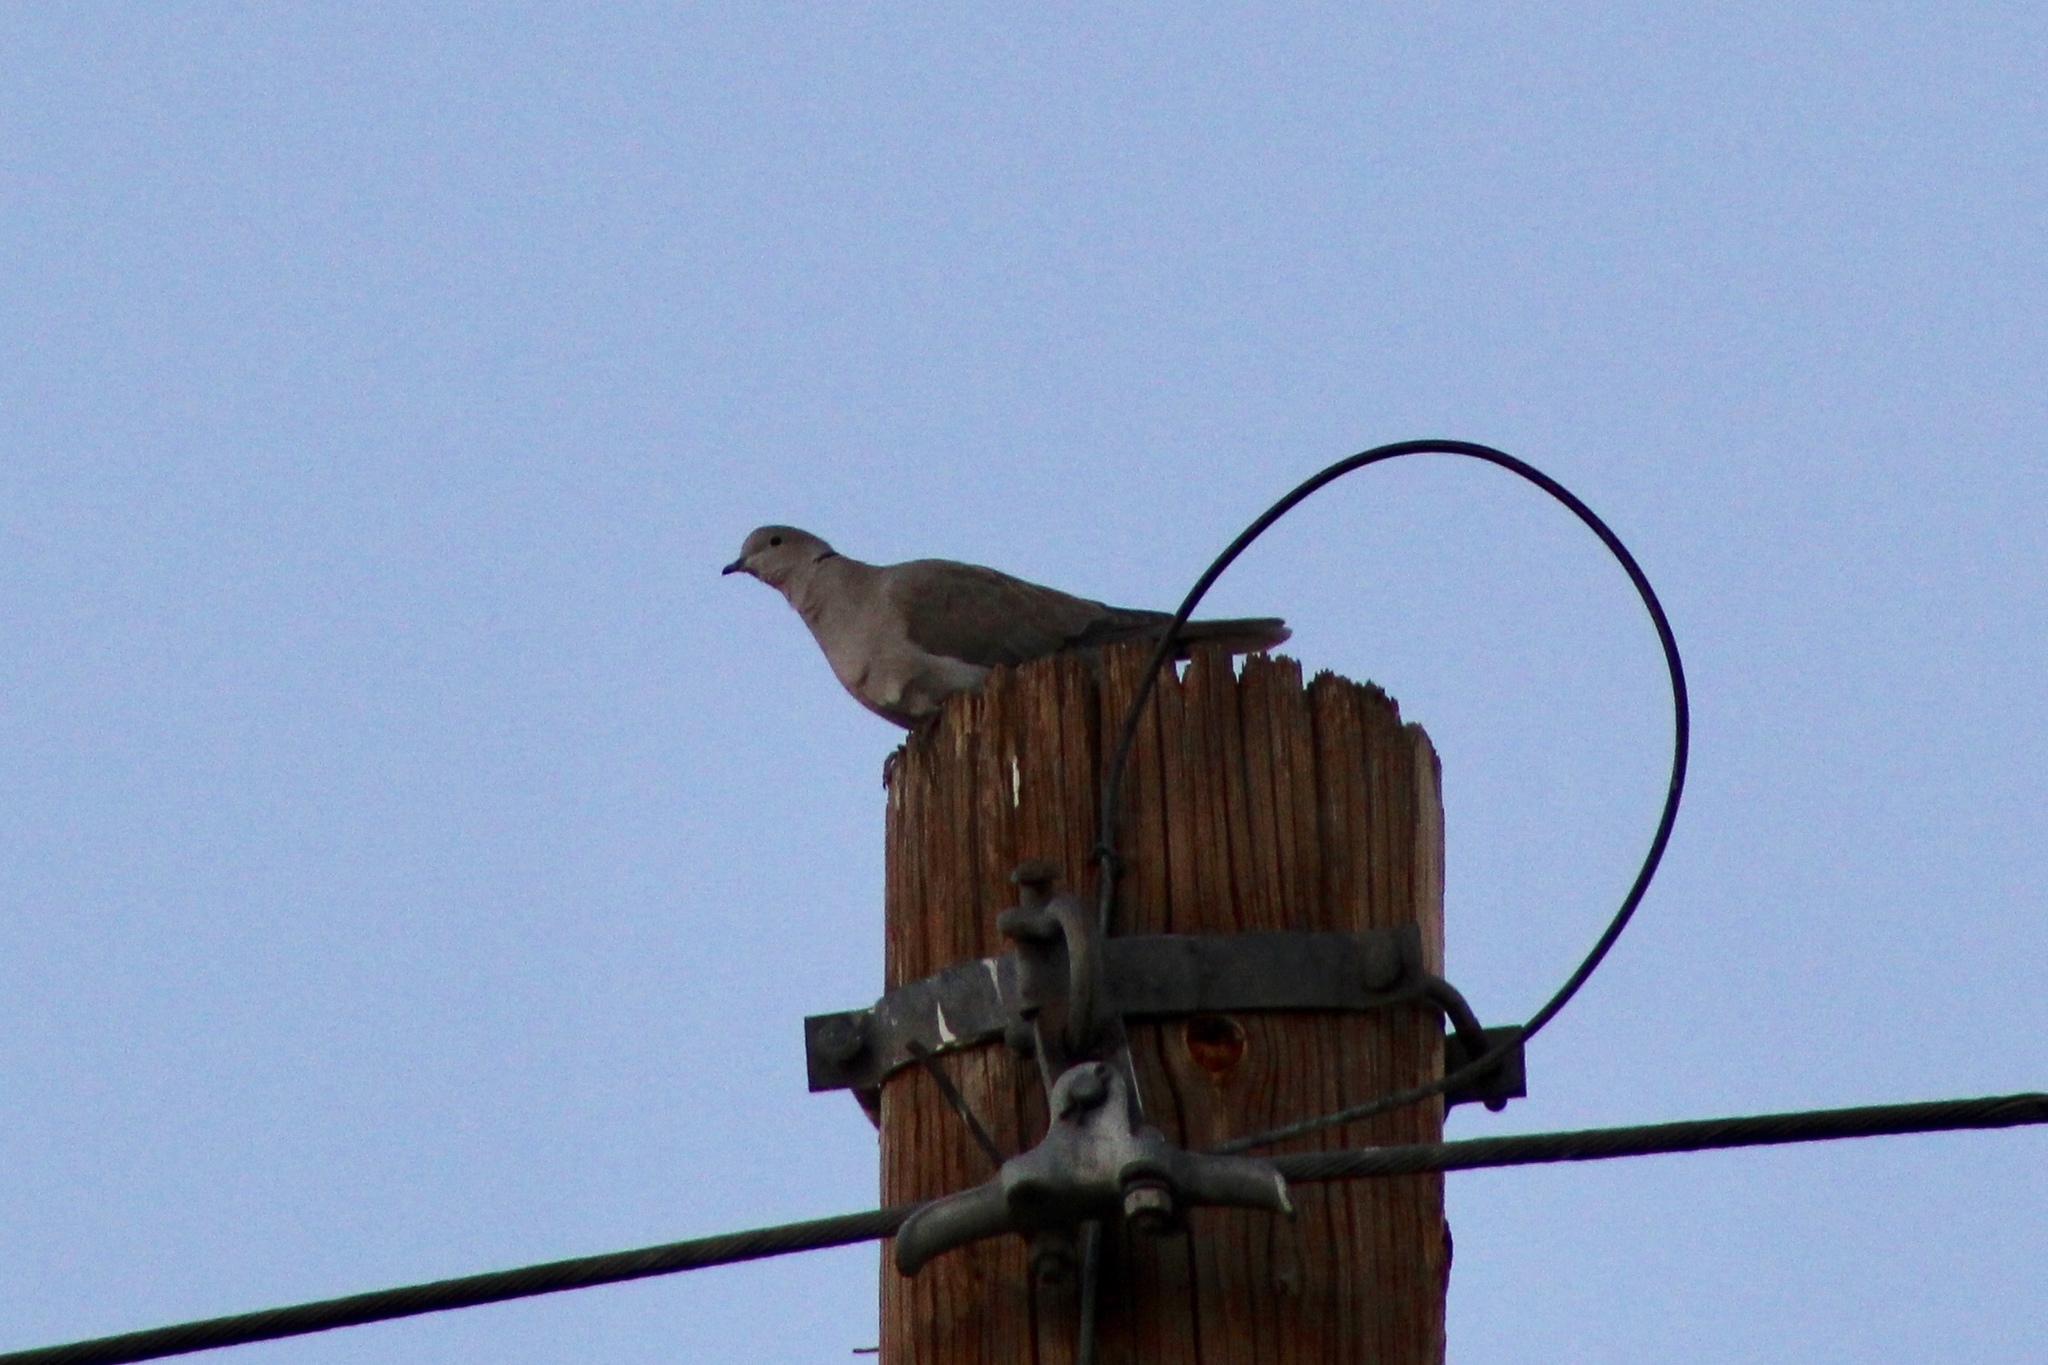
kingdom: Animalia
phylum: Chordata
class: Aves
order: Columbiformes
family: Columbidae
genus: Streptopelia
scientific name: Streptopelia decaocto
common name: Eurasian collared dove
